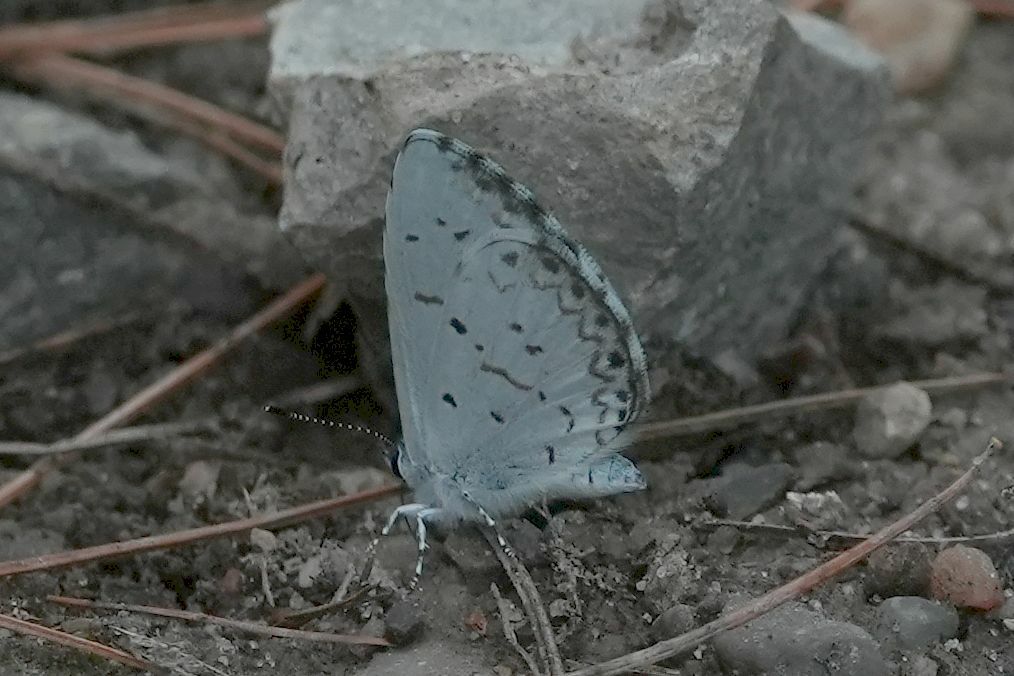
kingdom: Animalia
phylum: Arthropoda
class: Insecta
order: Lepidoptera
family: Lycaenidae
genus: Celastrina
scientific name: Celastrina lucia
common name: Lucia azure
